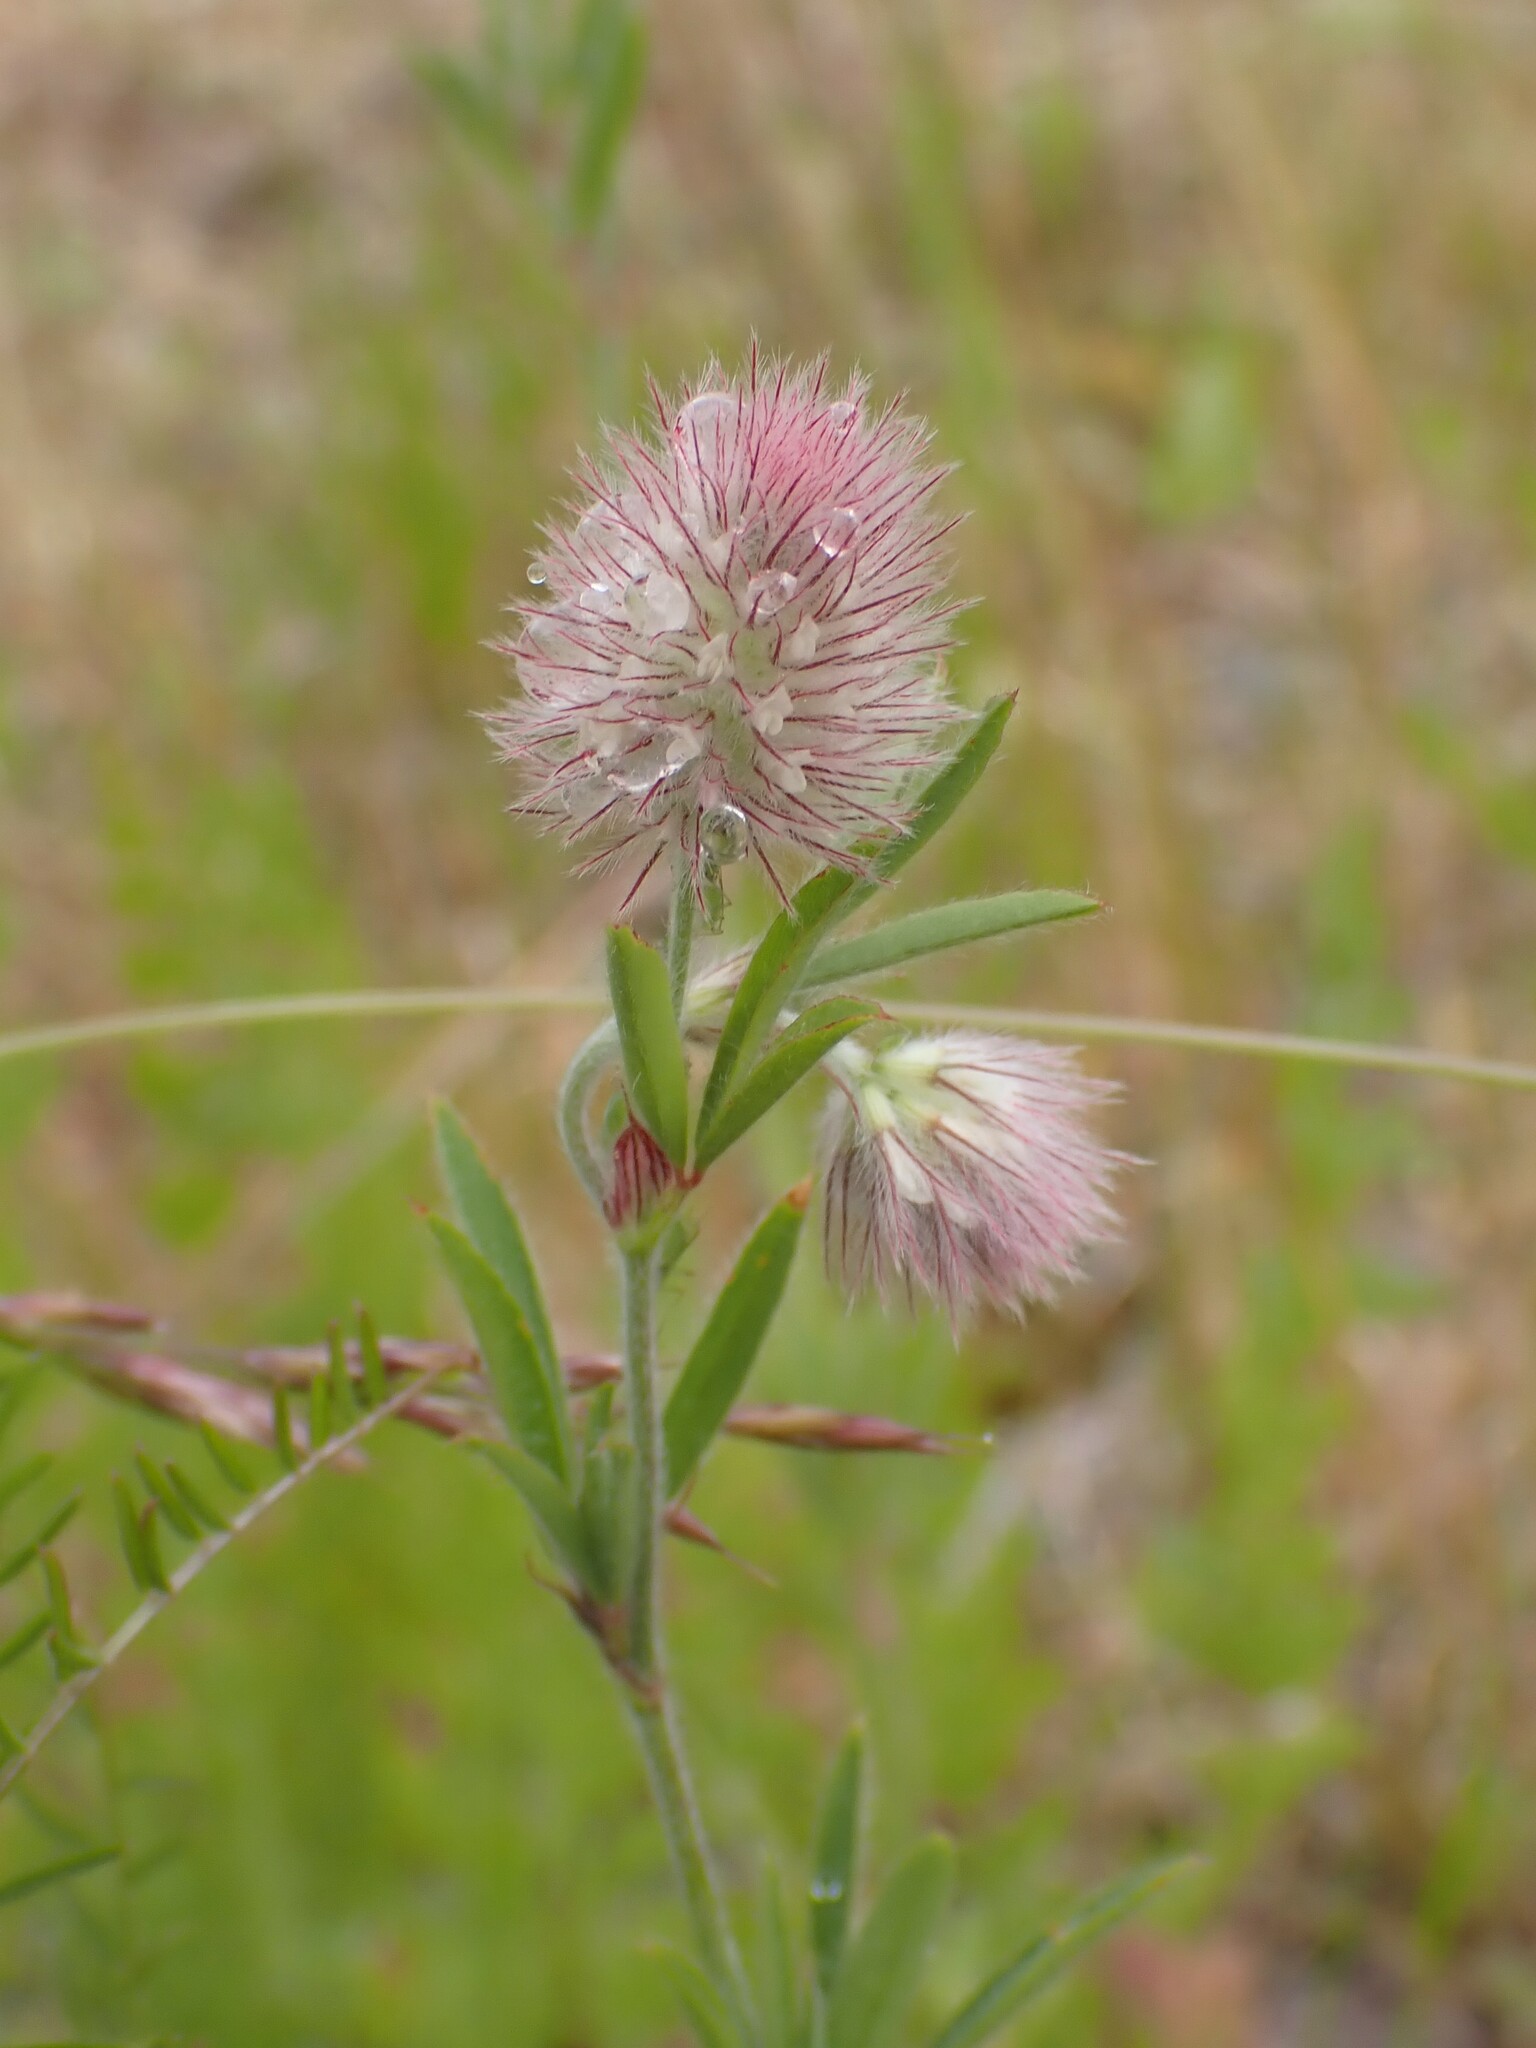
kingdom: Plantae
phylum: Tracheophyta
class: Magnoliopsida
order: Fabales
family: Fabaceae
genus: Trifolium
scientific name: Trifolium arvense
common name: Hare's-foot clover
